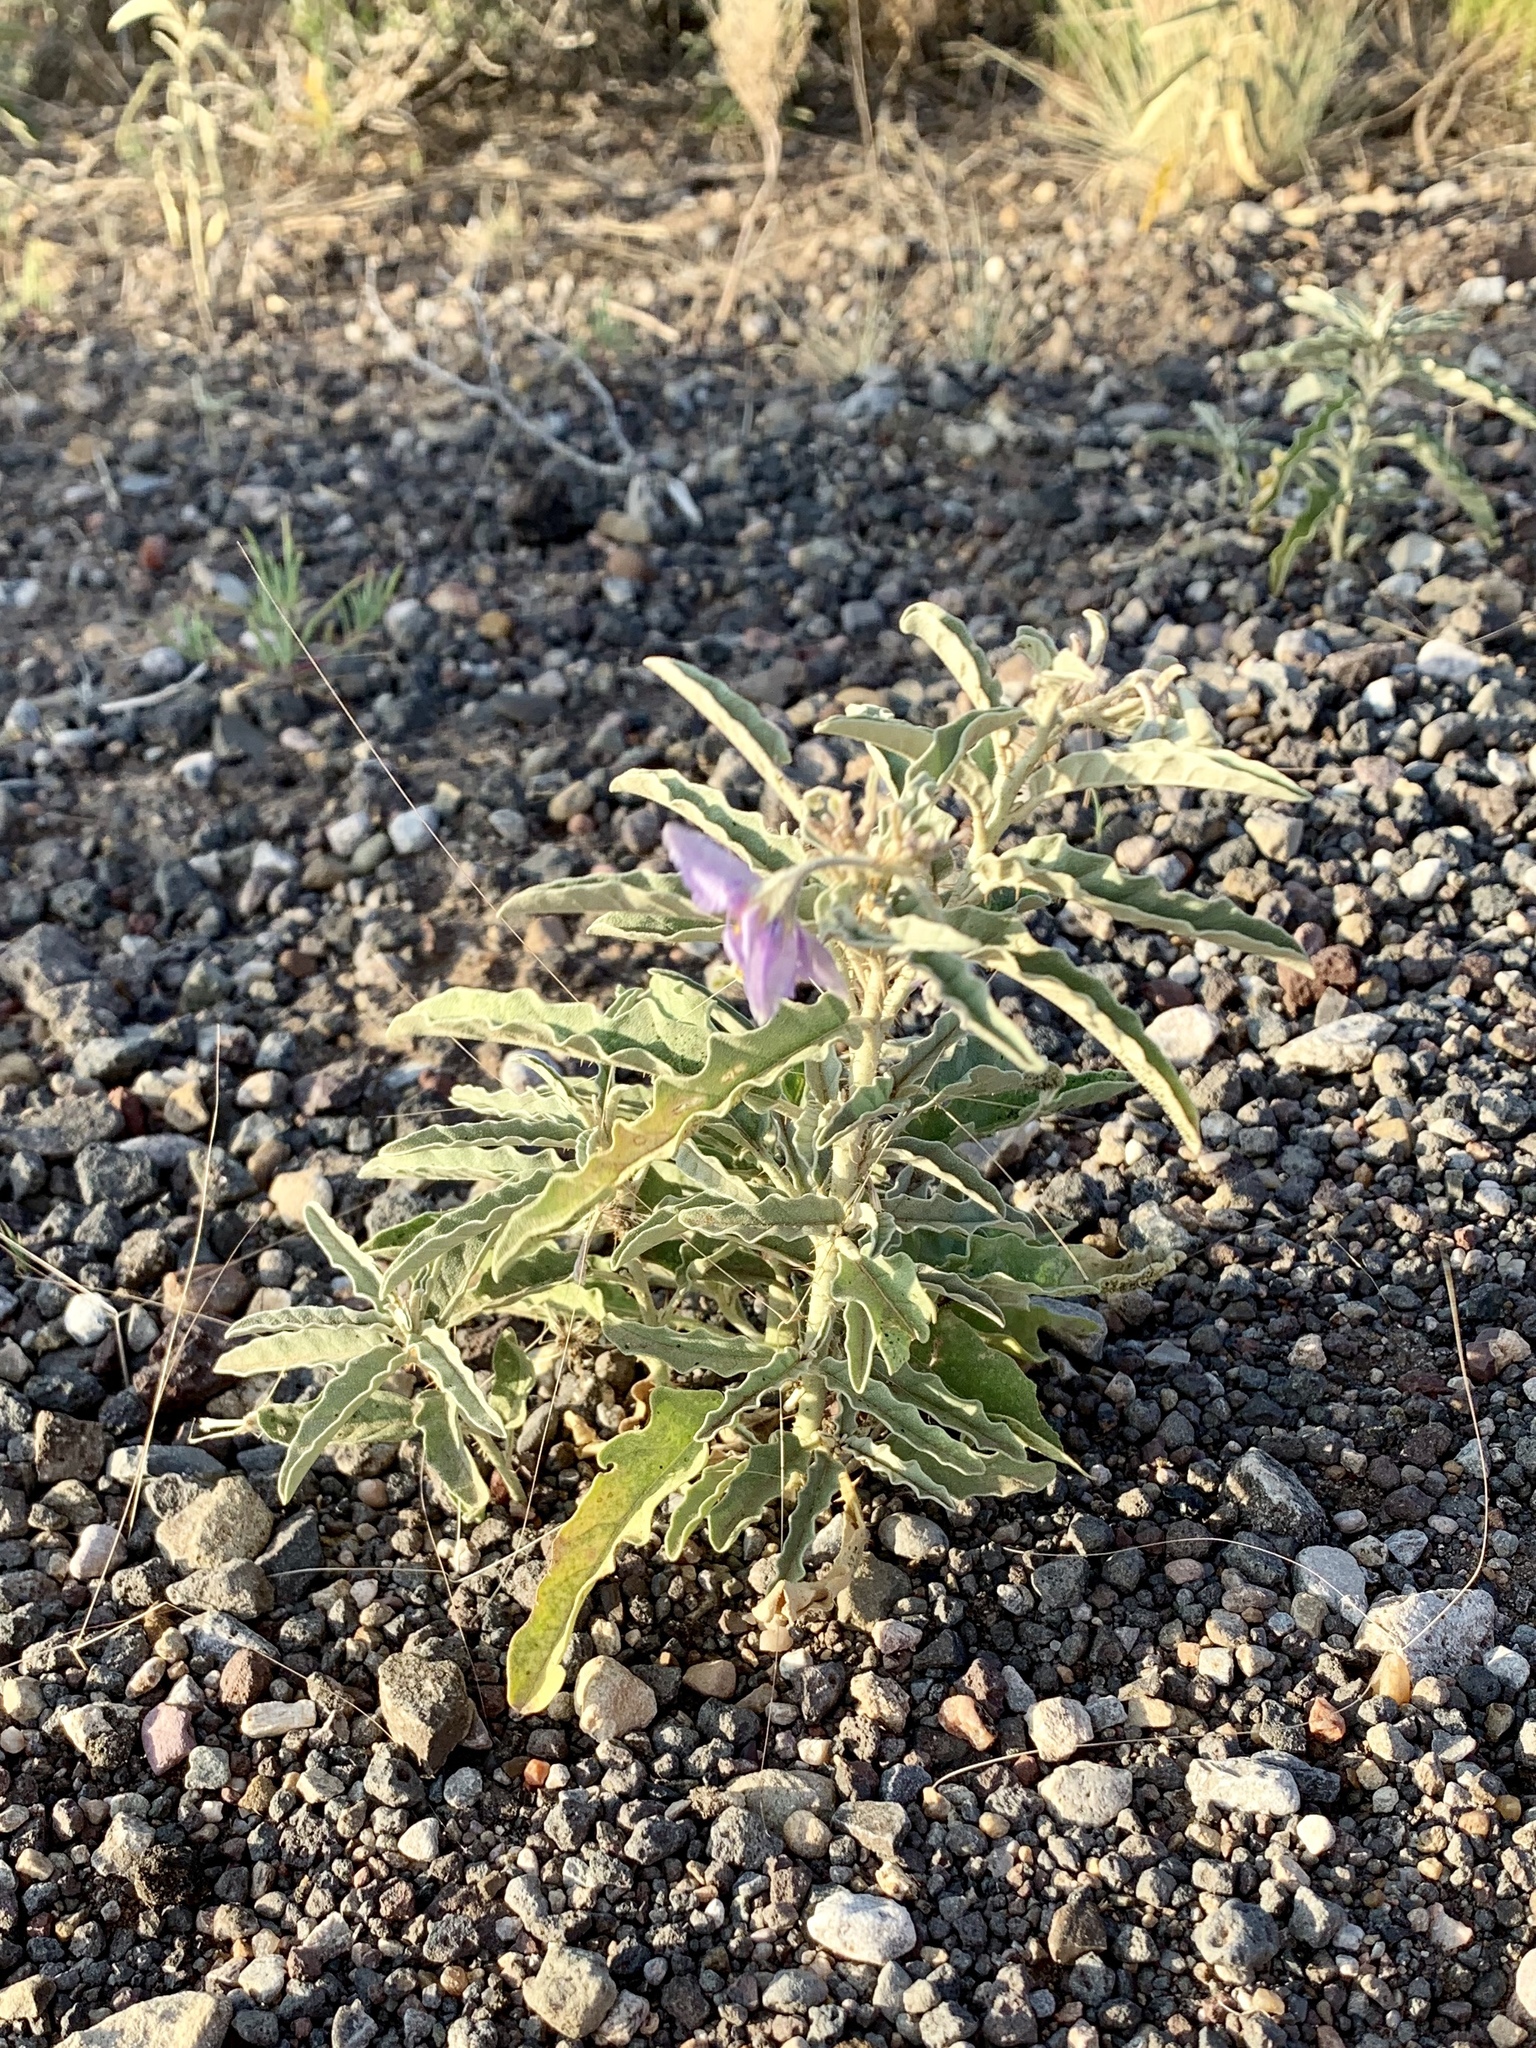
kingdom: Plantae
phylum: Tracheophyta
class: Magnoliopsida
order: Solanales
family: Solanaceae
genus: Solanum
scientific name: Solanum elaeagnifolium
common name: Silverleaf nightshade
